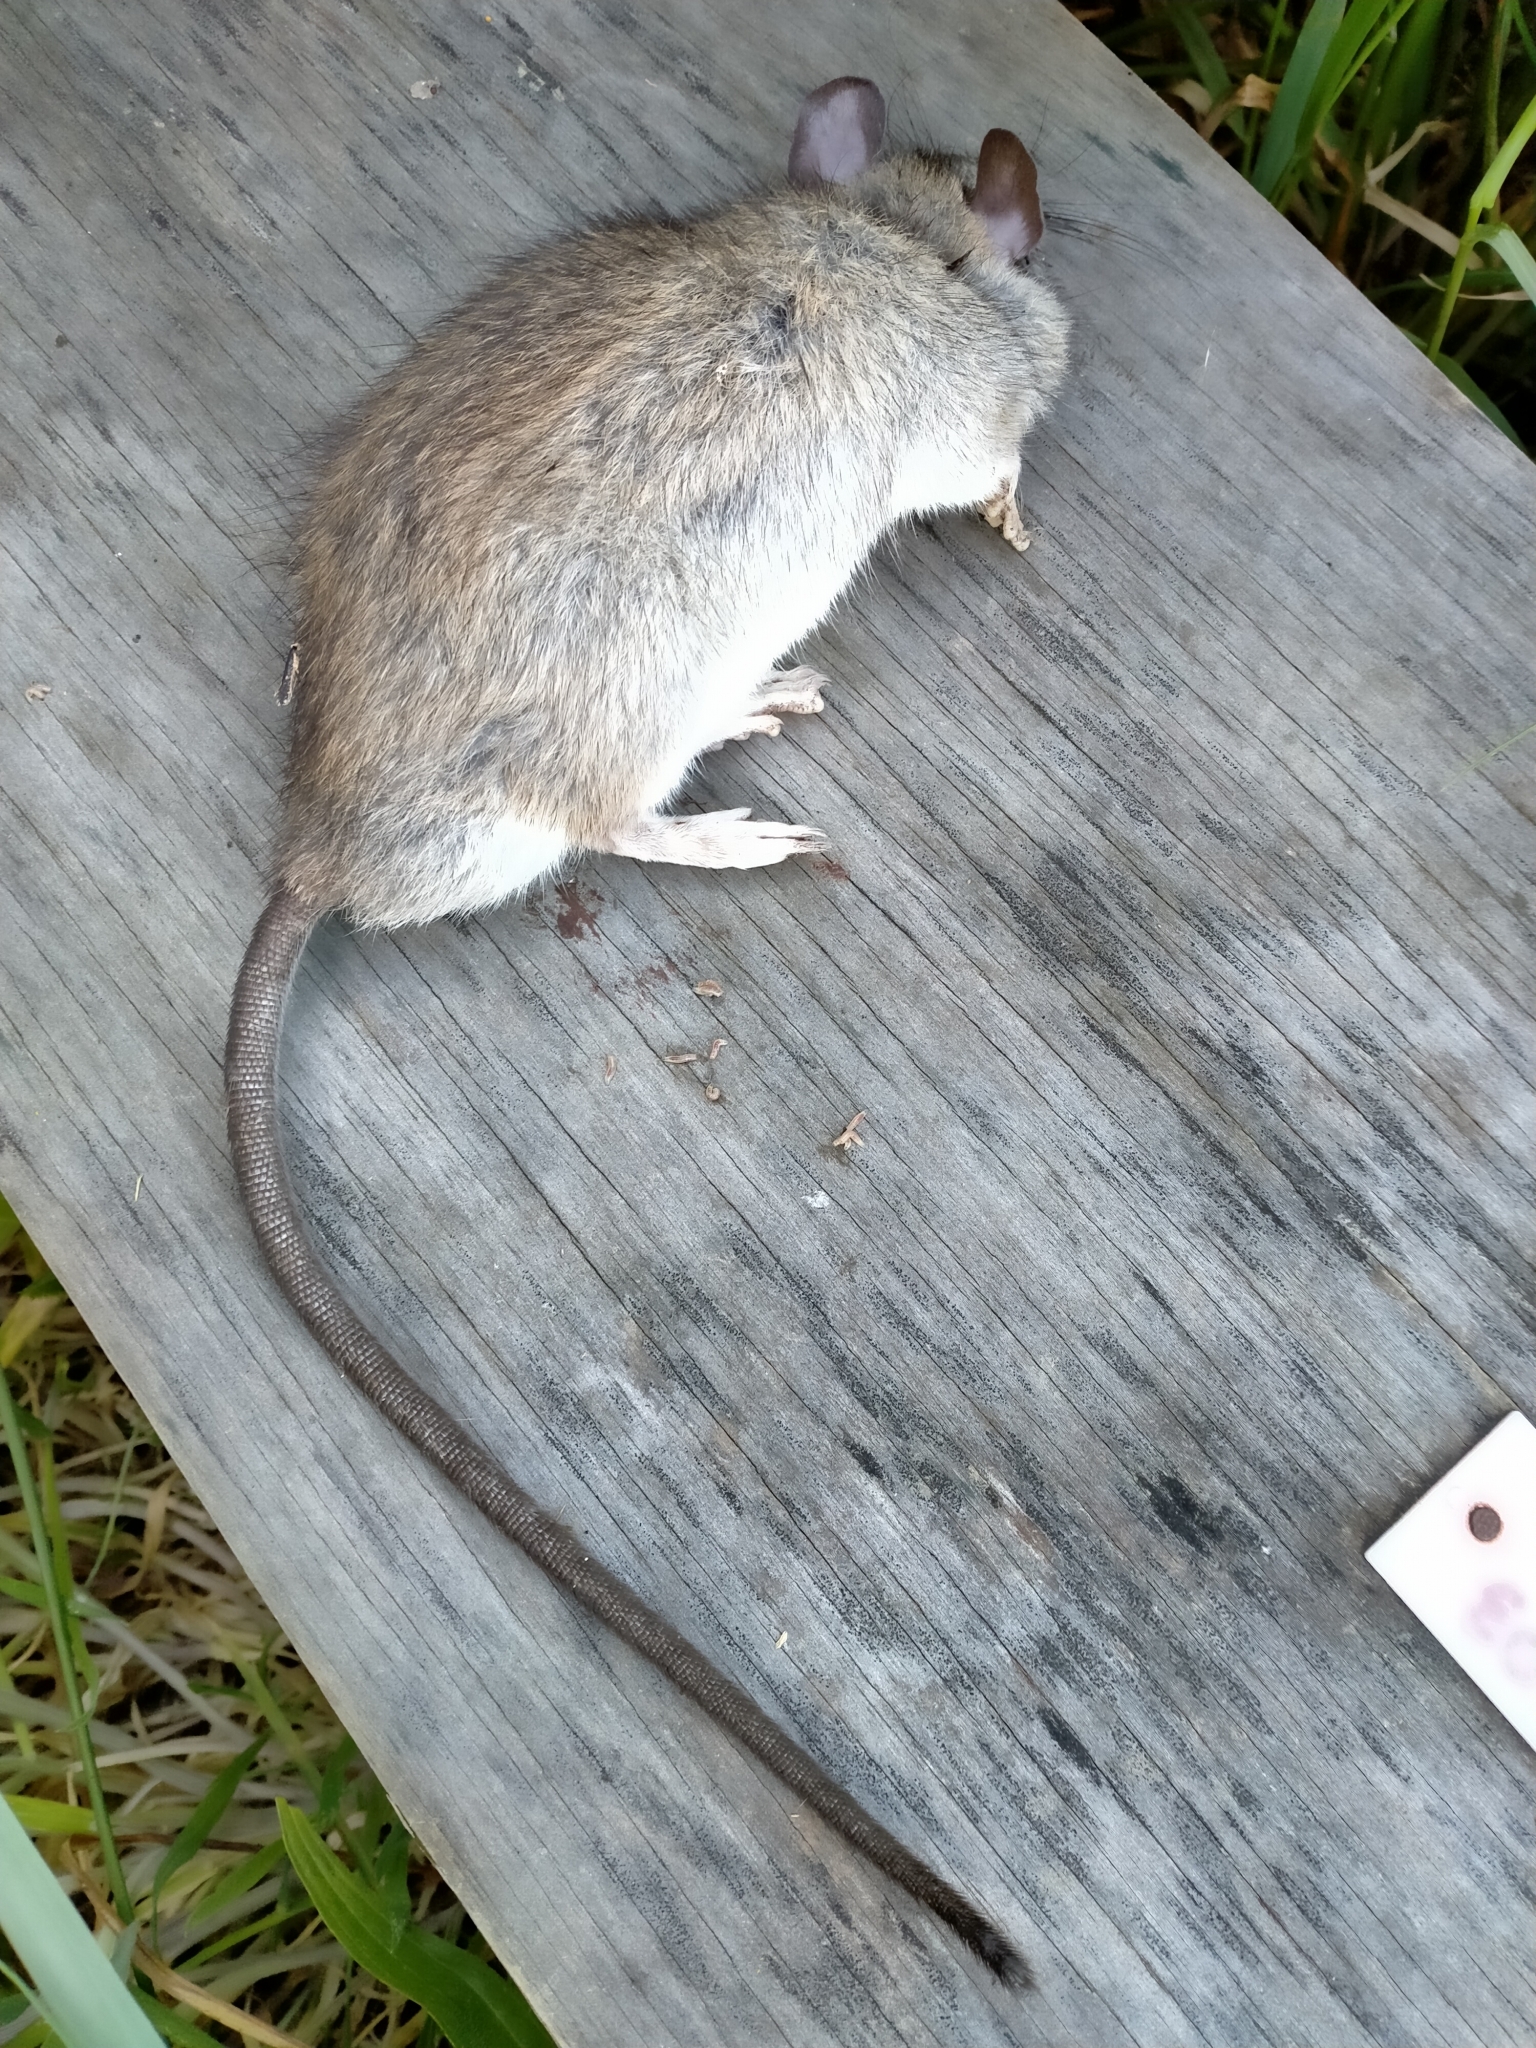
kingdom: Animalia
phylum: Chordata
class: Mammalia
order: Rodentia
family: Muridae
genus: Rattus
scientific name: Rattus rattus
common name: Black rat
